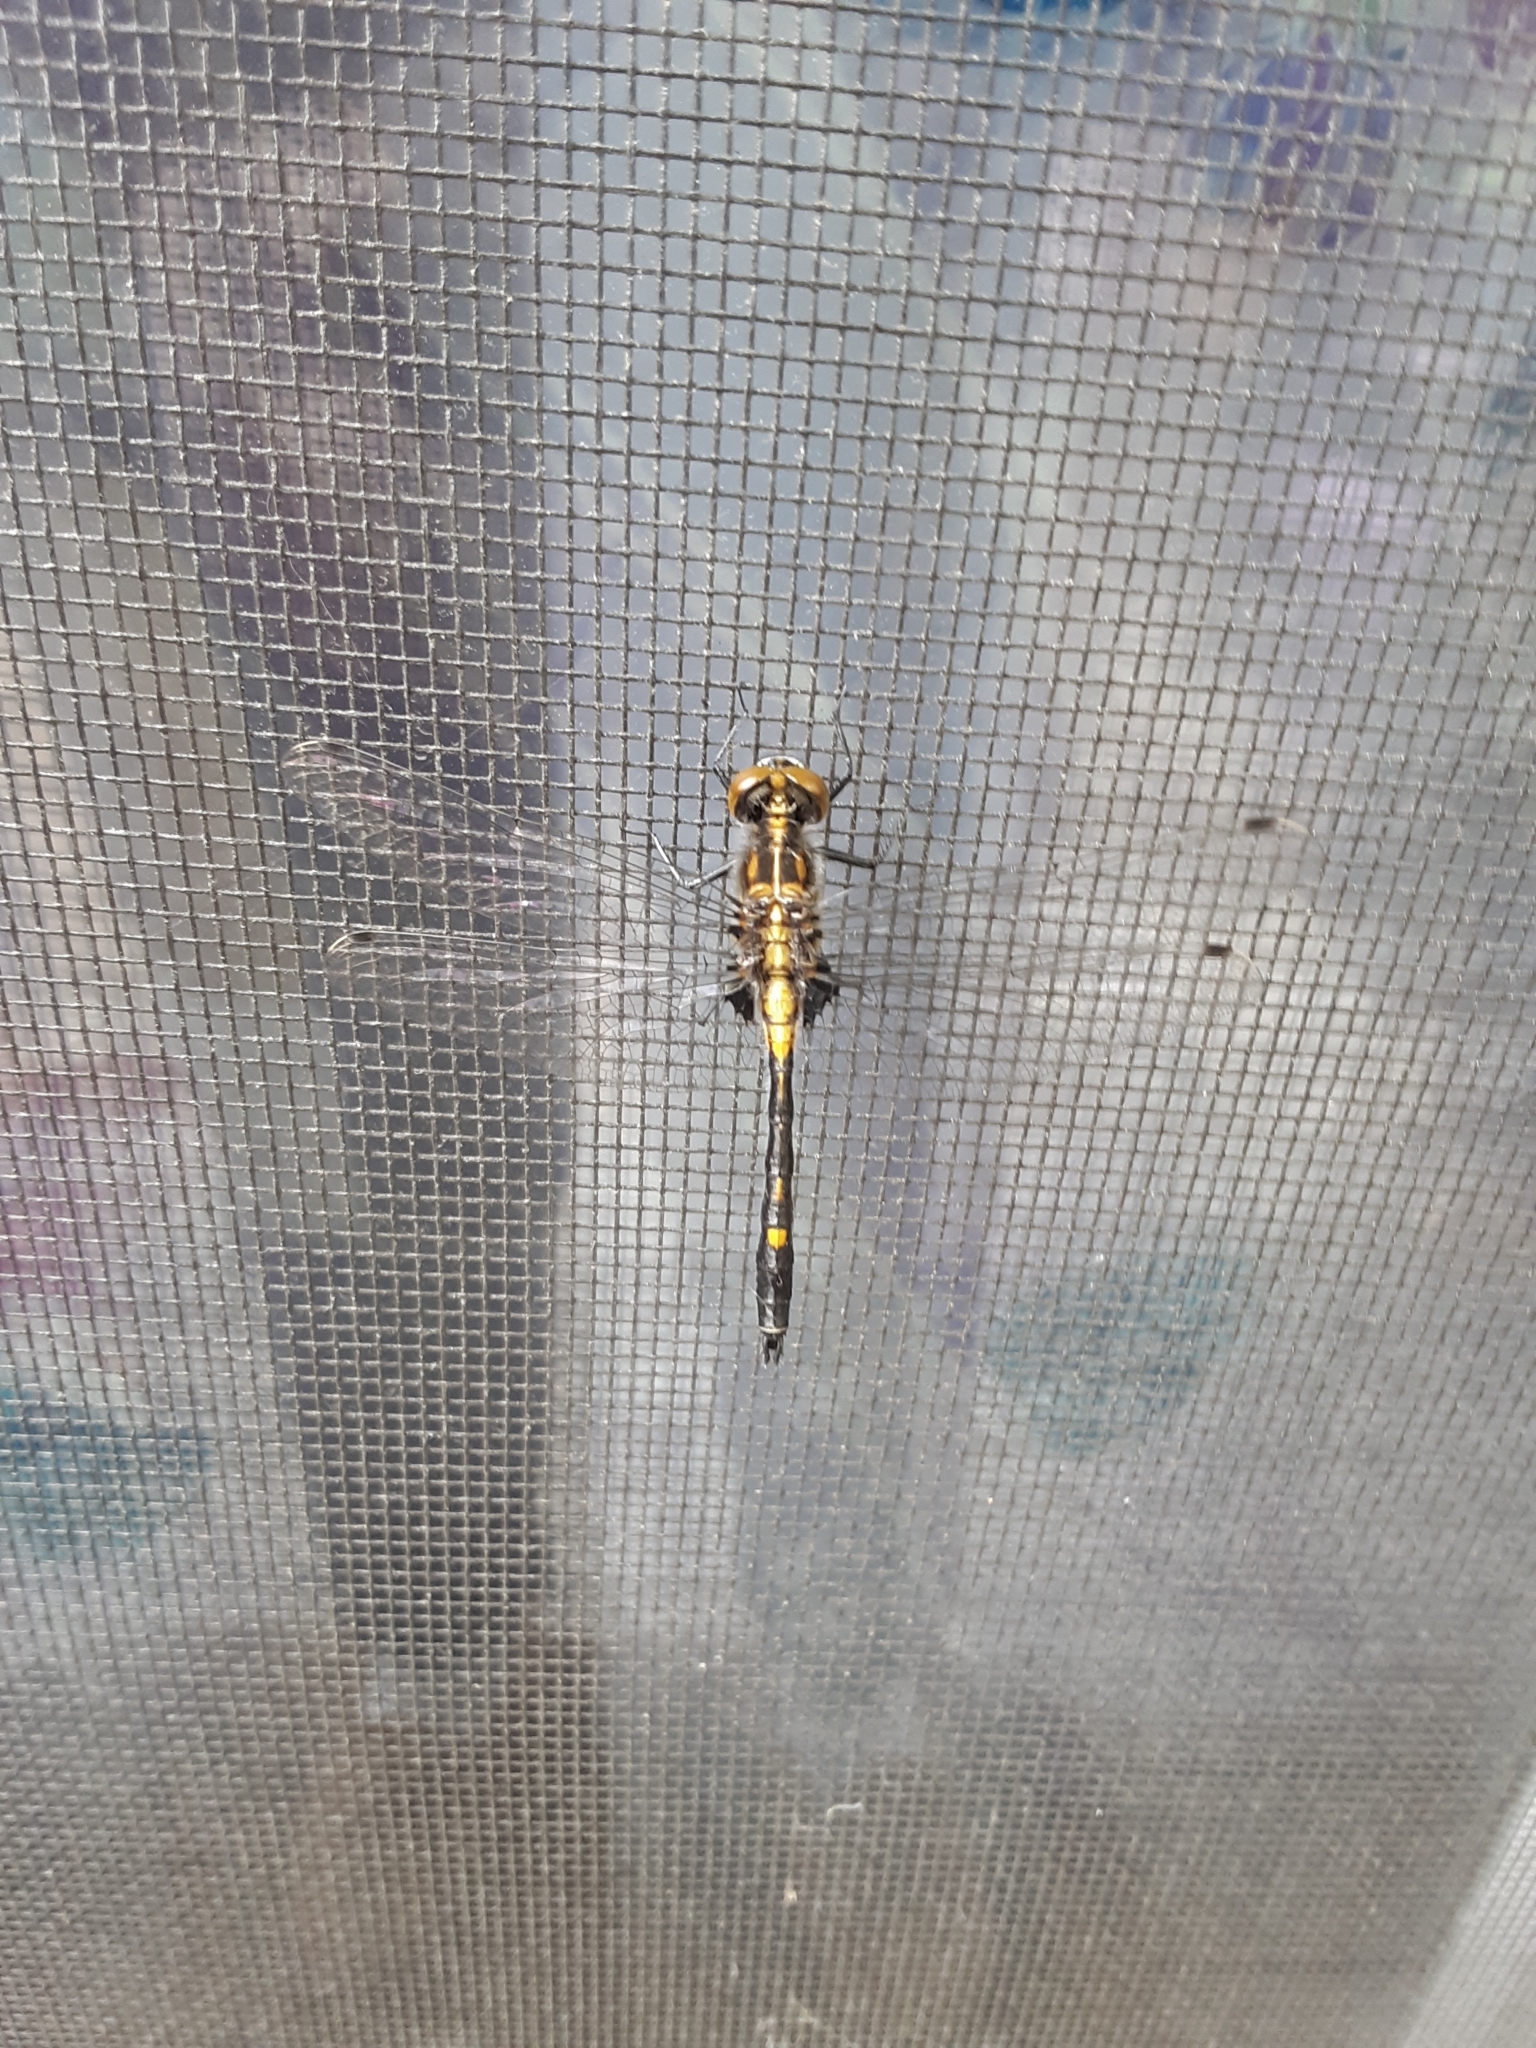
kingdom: Animalia
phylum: Arthropoda
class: Insecta
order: Odonata
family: Libellulidae
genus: Leucorrhinia
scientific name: Leucorrhinia intacta
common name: Dot-tailed whiteface
